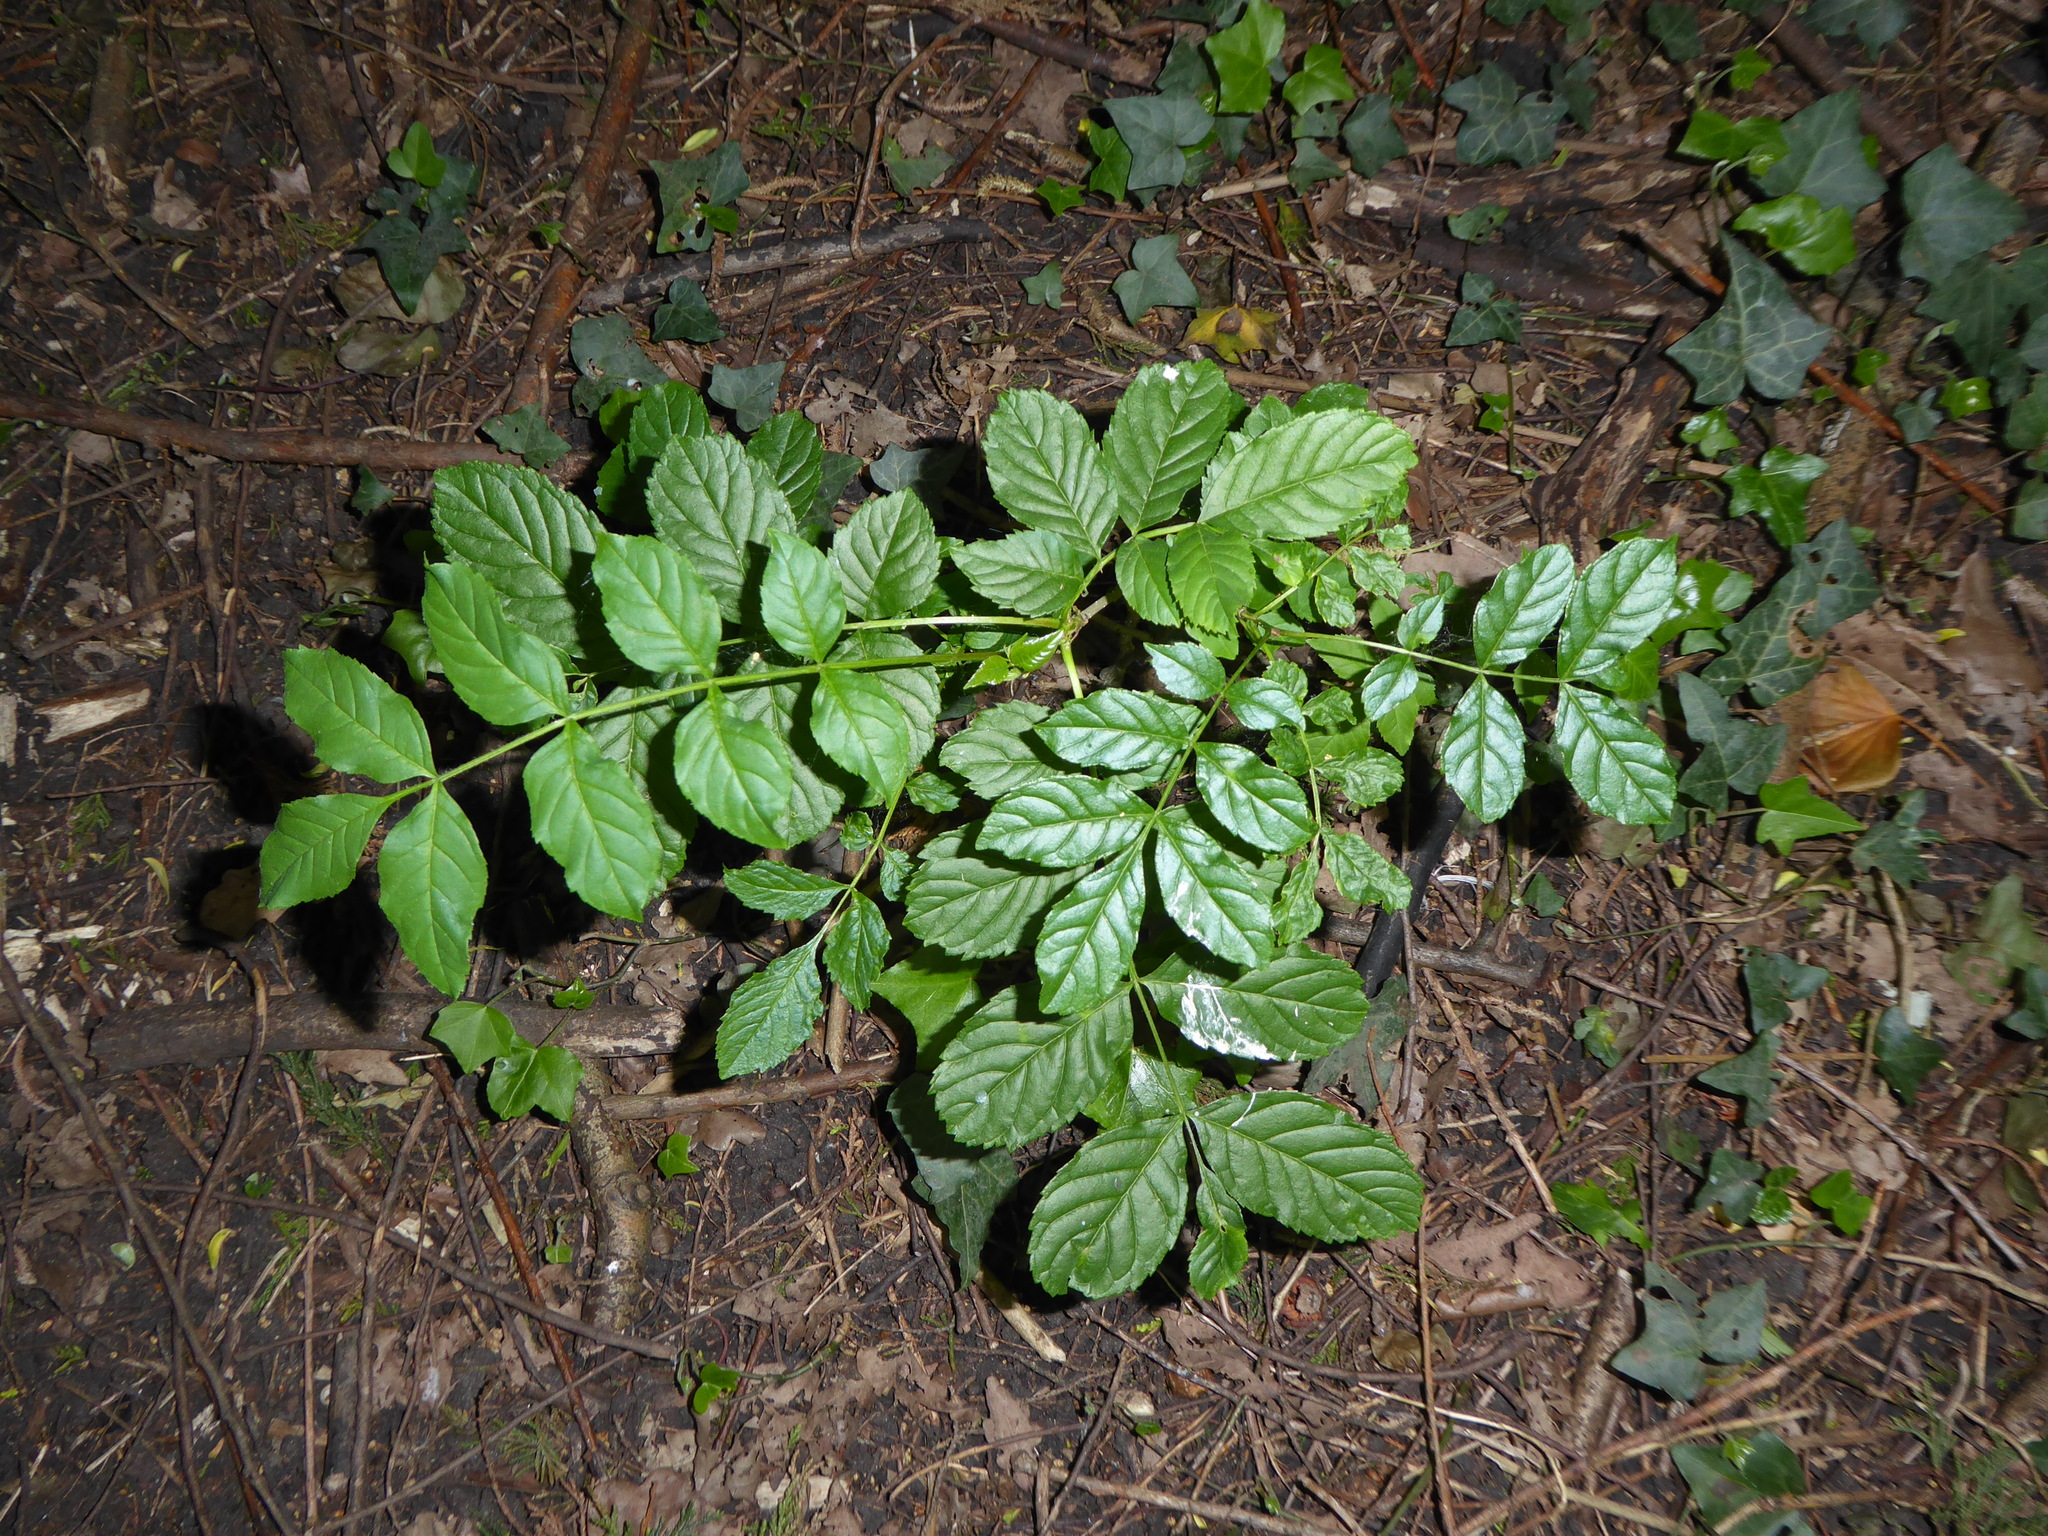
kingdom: Plantae
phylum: Tracheophyta
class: Magnoliopsida
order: Lamiales
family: Oleaceae
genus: Fraxinus
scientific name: Fraxinus excelsior
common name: European ash
